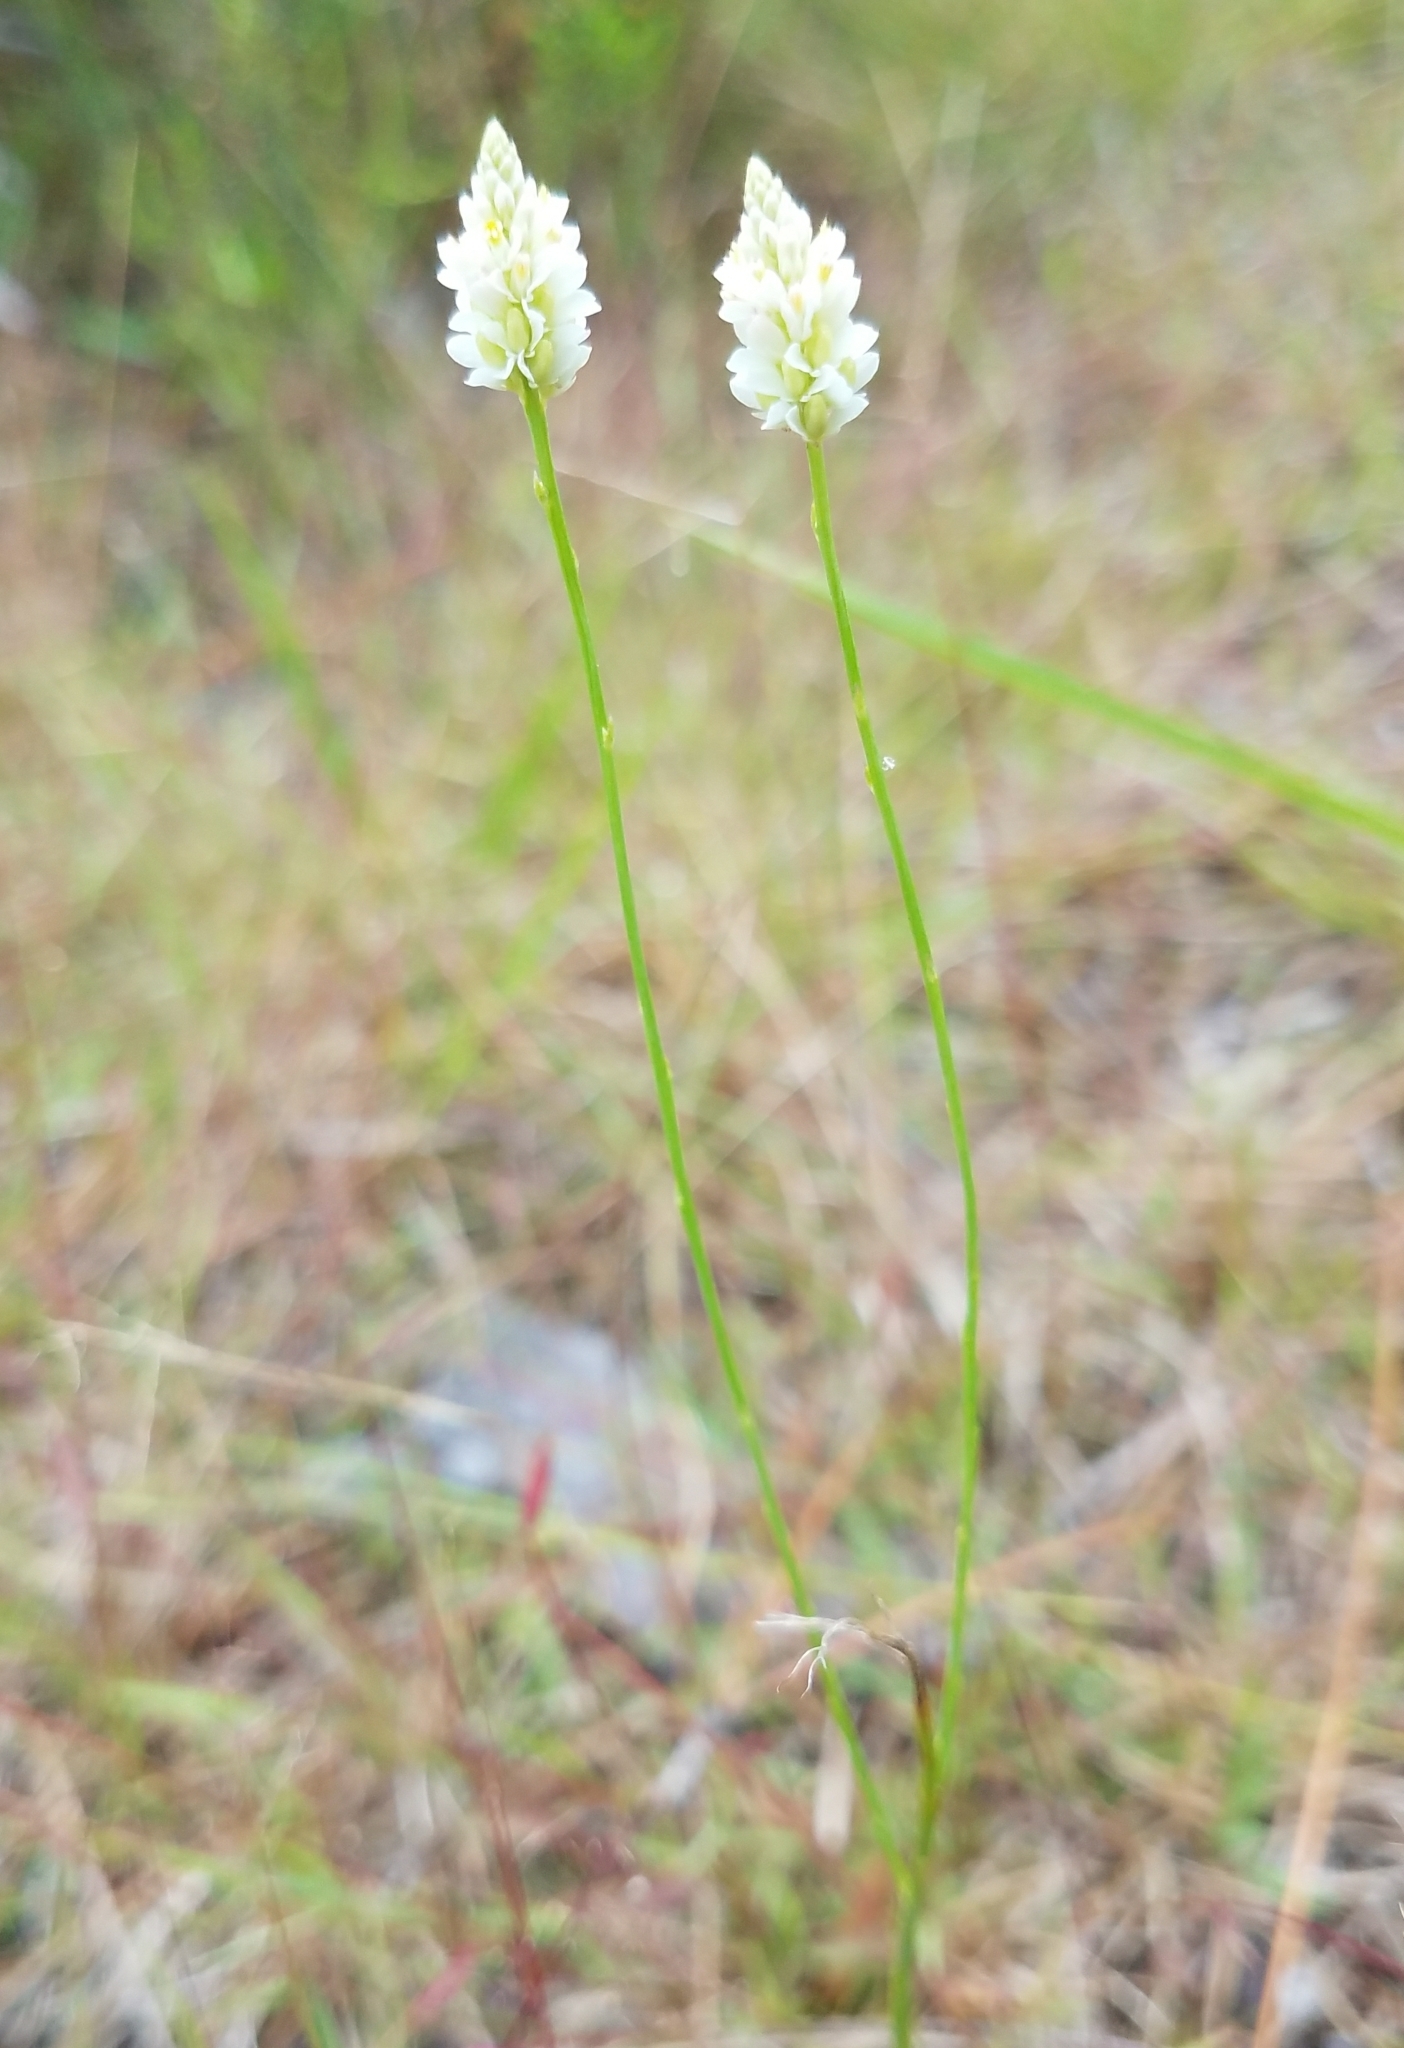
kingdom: Plantae
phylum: Tracheophyta
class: Magnoliopsida
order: Fabales
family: Polygalaceae
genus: Polygala
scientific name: Polygala setacea
